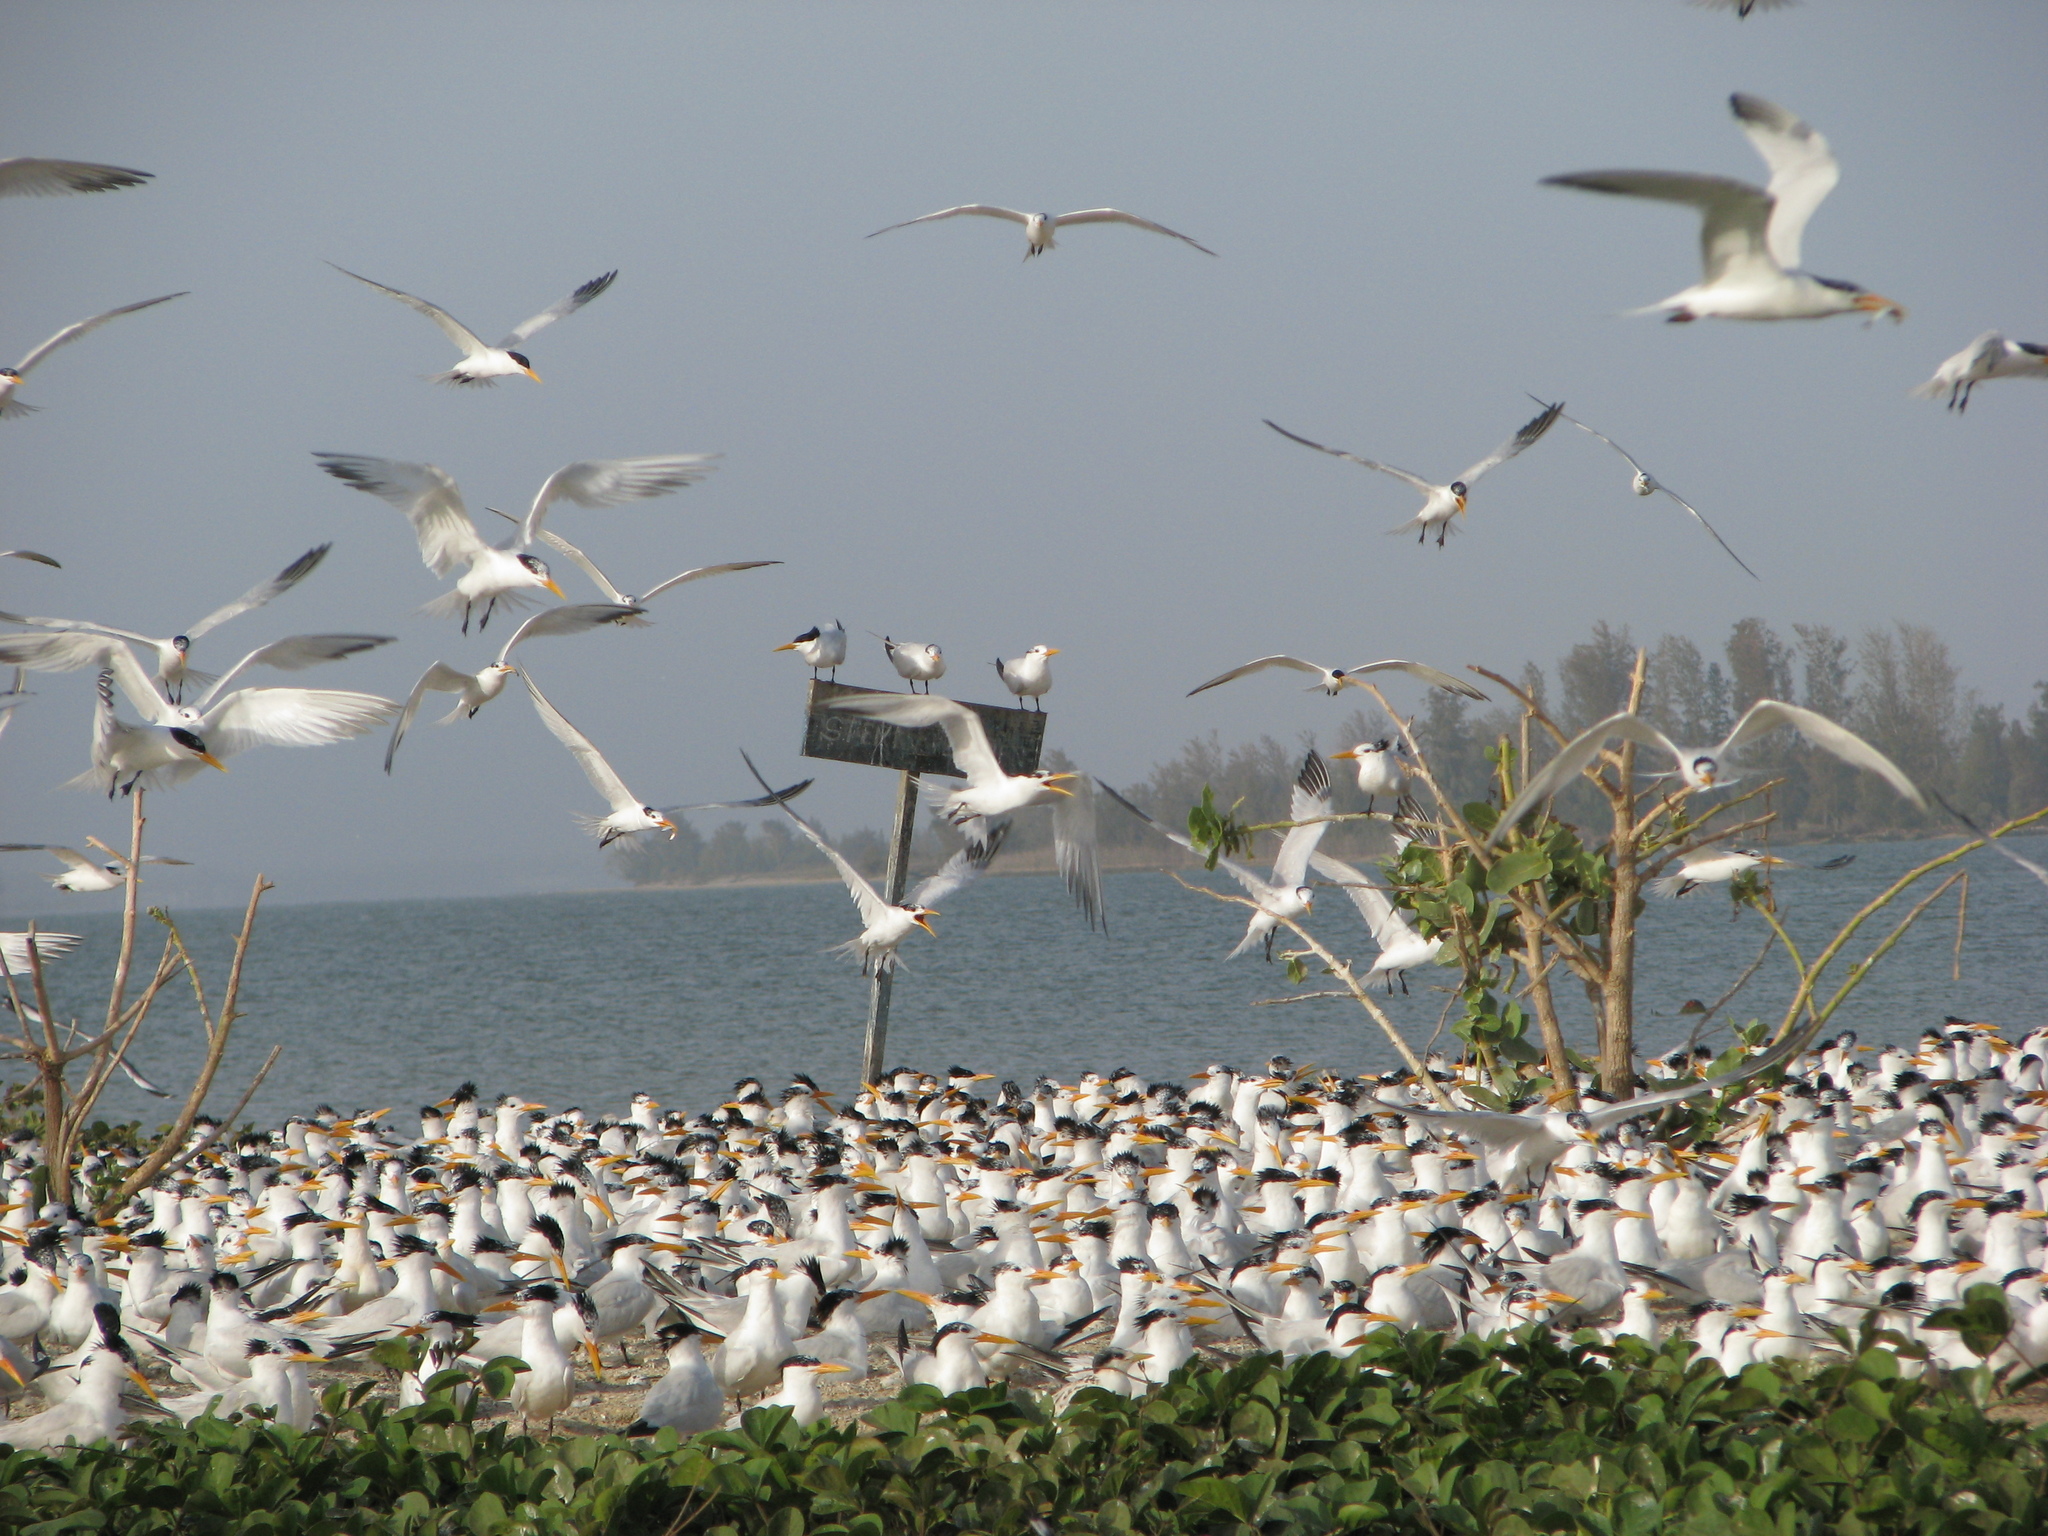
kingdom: Animalia
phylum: Chordata
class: Aves
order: Charadriiformes
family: Laridae
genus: Thalasseus
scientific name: Thalasseus albididorsalis
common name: West african crested tern
